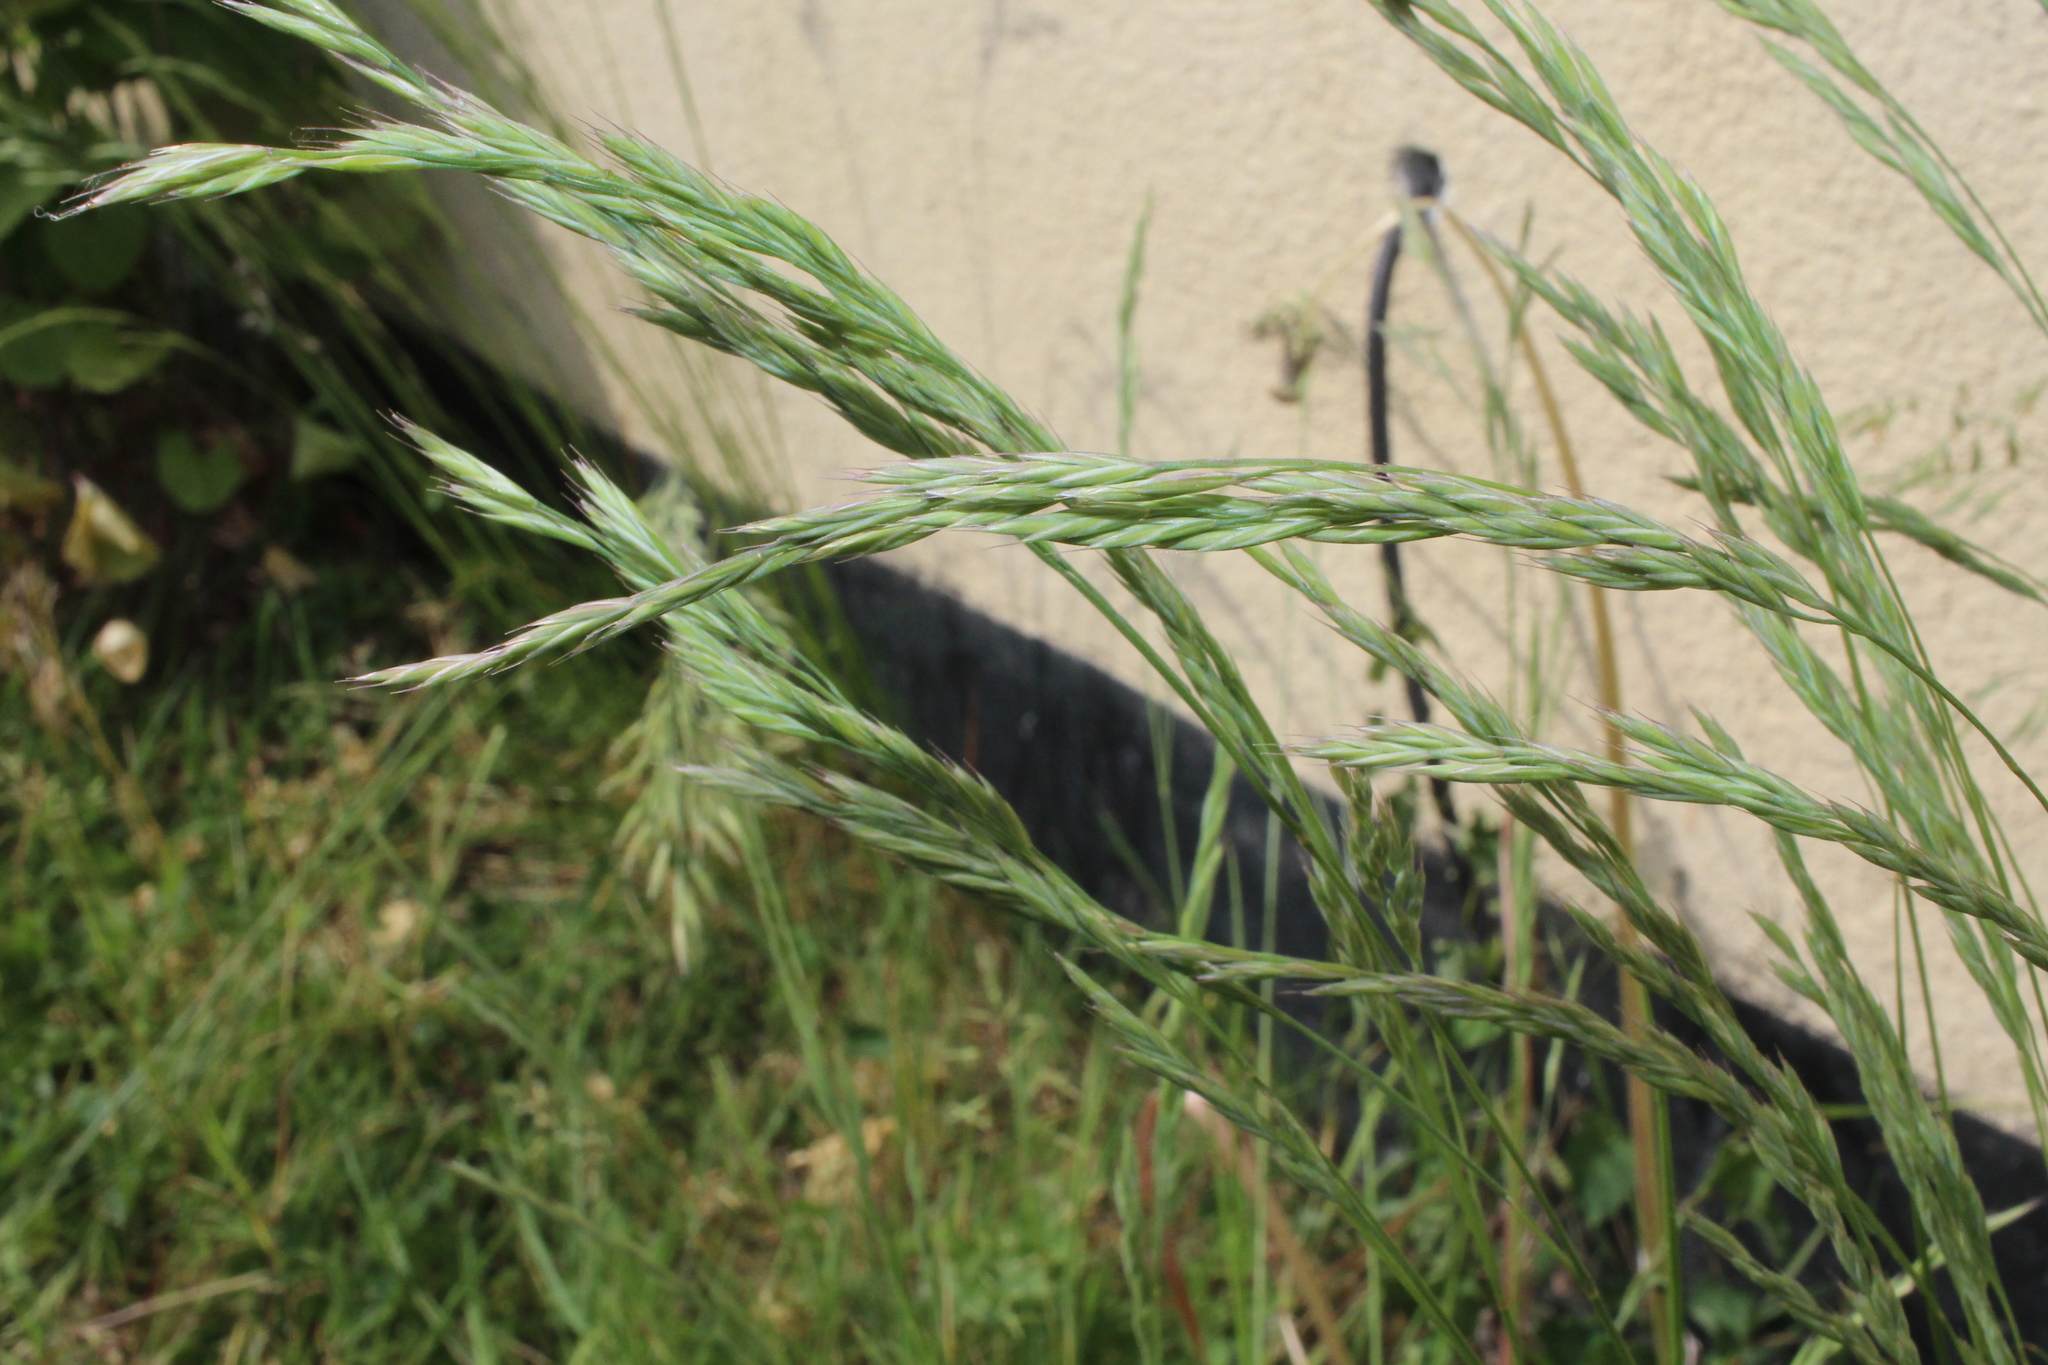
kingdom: Plantae
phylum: Tracheophyta
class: Liliopsida
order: Poales
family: Poaceae
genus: Festuca
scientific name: Festuca rubra
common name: Red fescue
